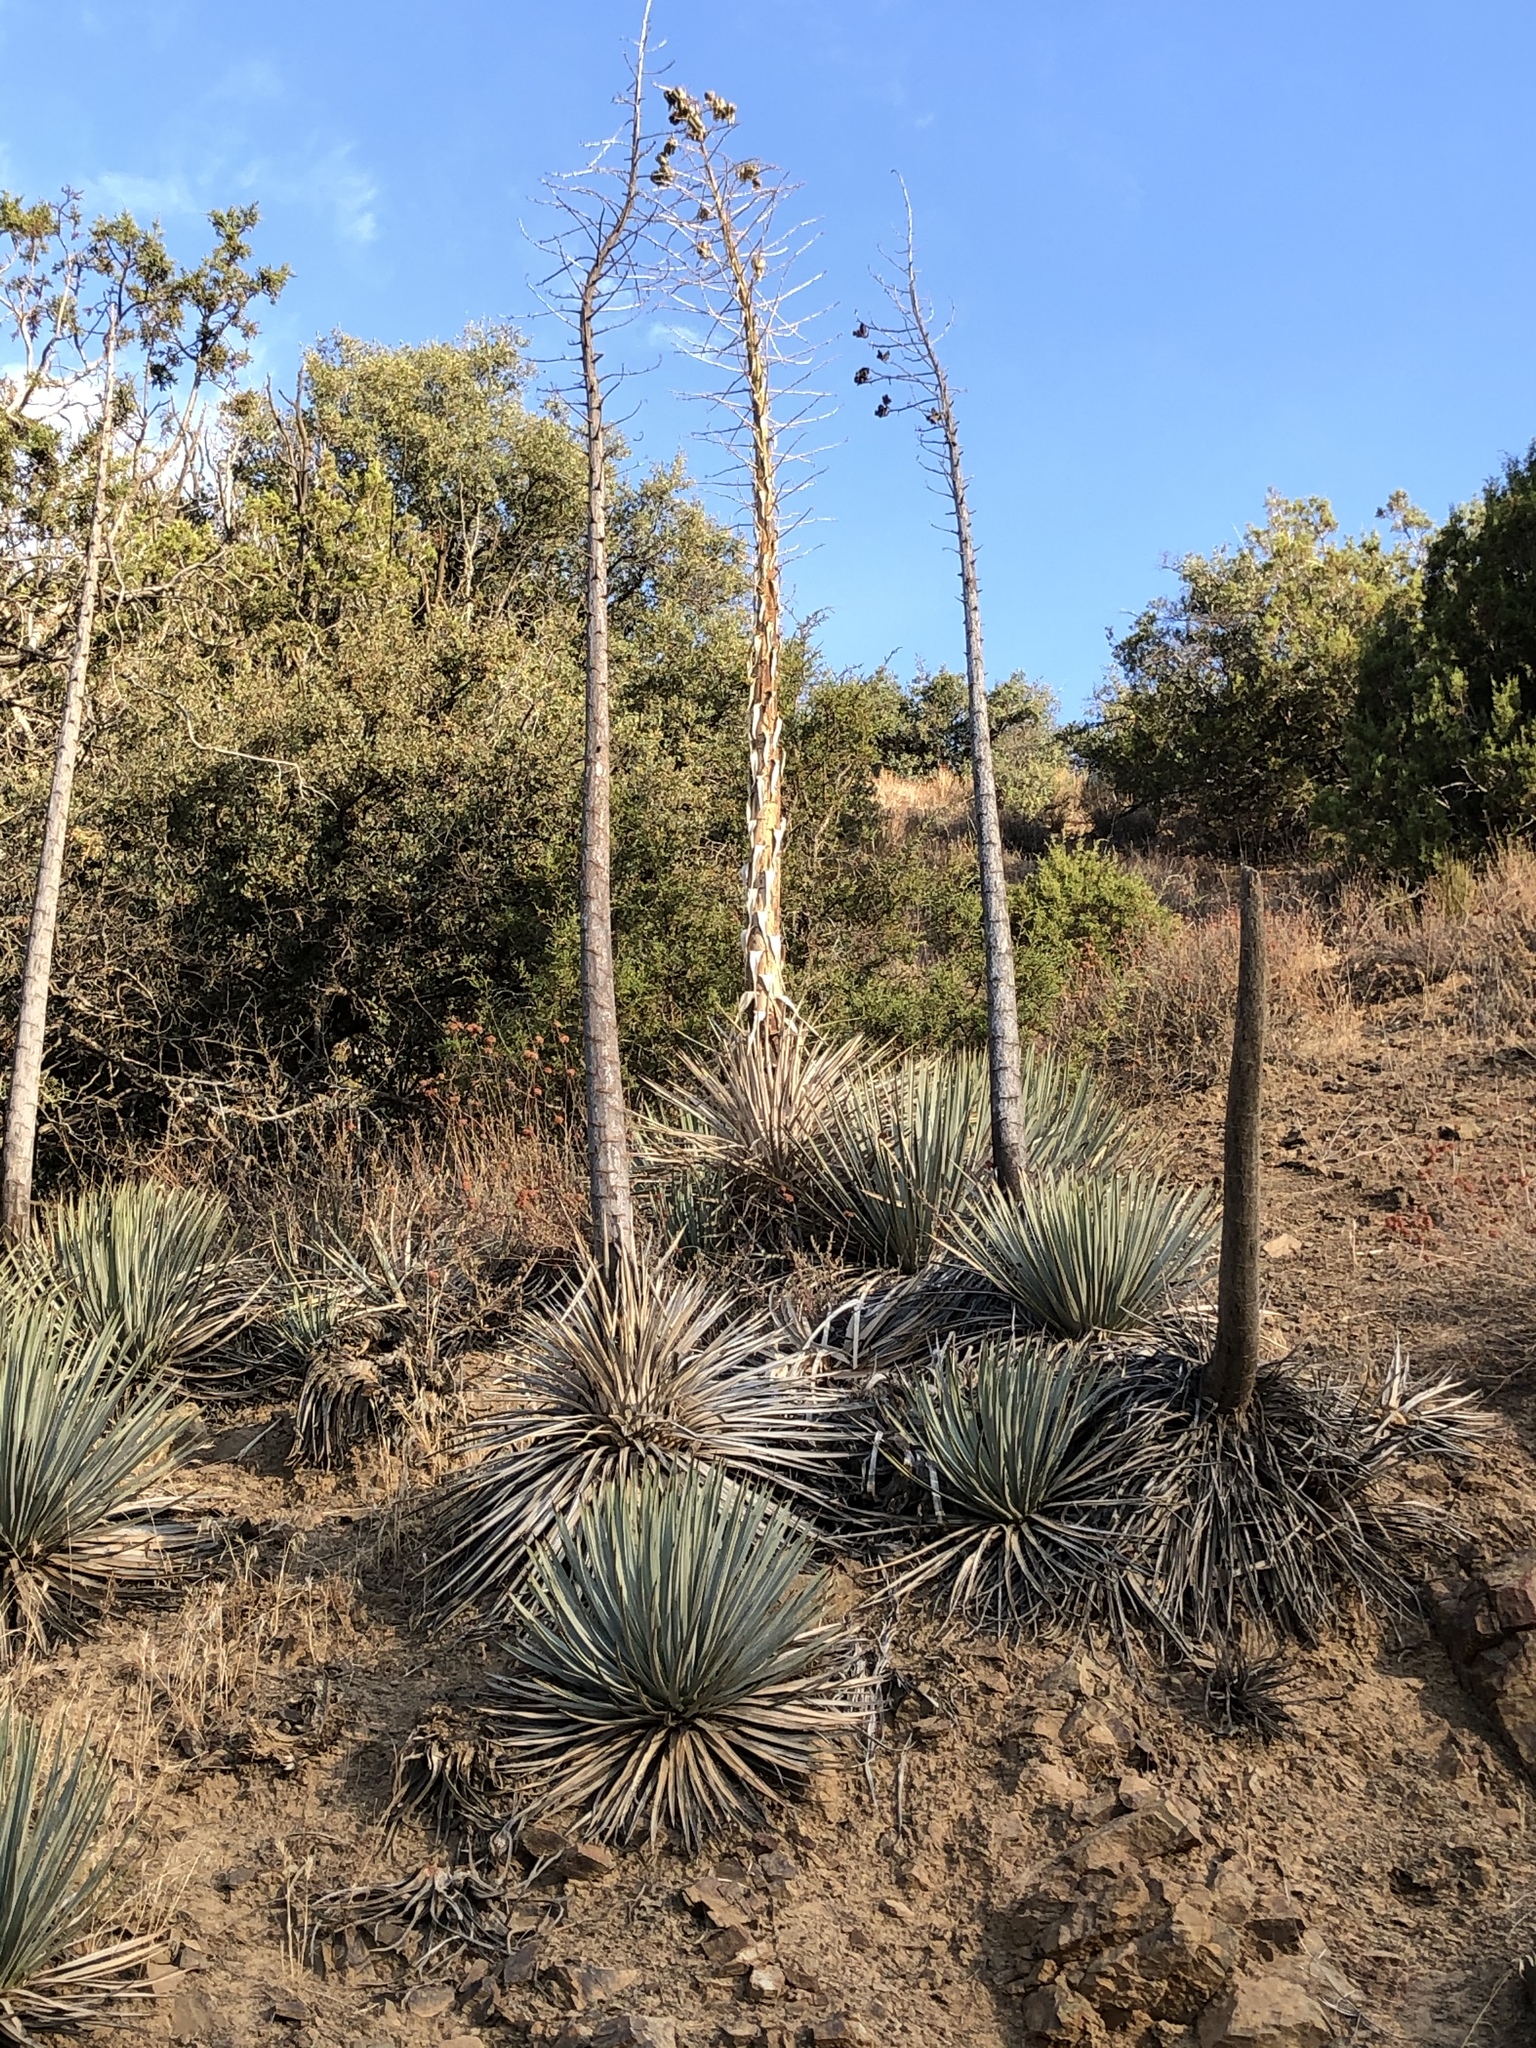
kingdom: Plantae
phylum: Tracheophyta
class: Liliopsida
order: Asparagales
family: Asparagaceae
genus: Hesperoyucca
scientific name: Hesperoyucca whipplei
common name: Our lord's-candle
